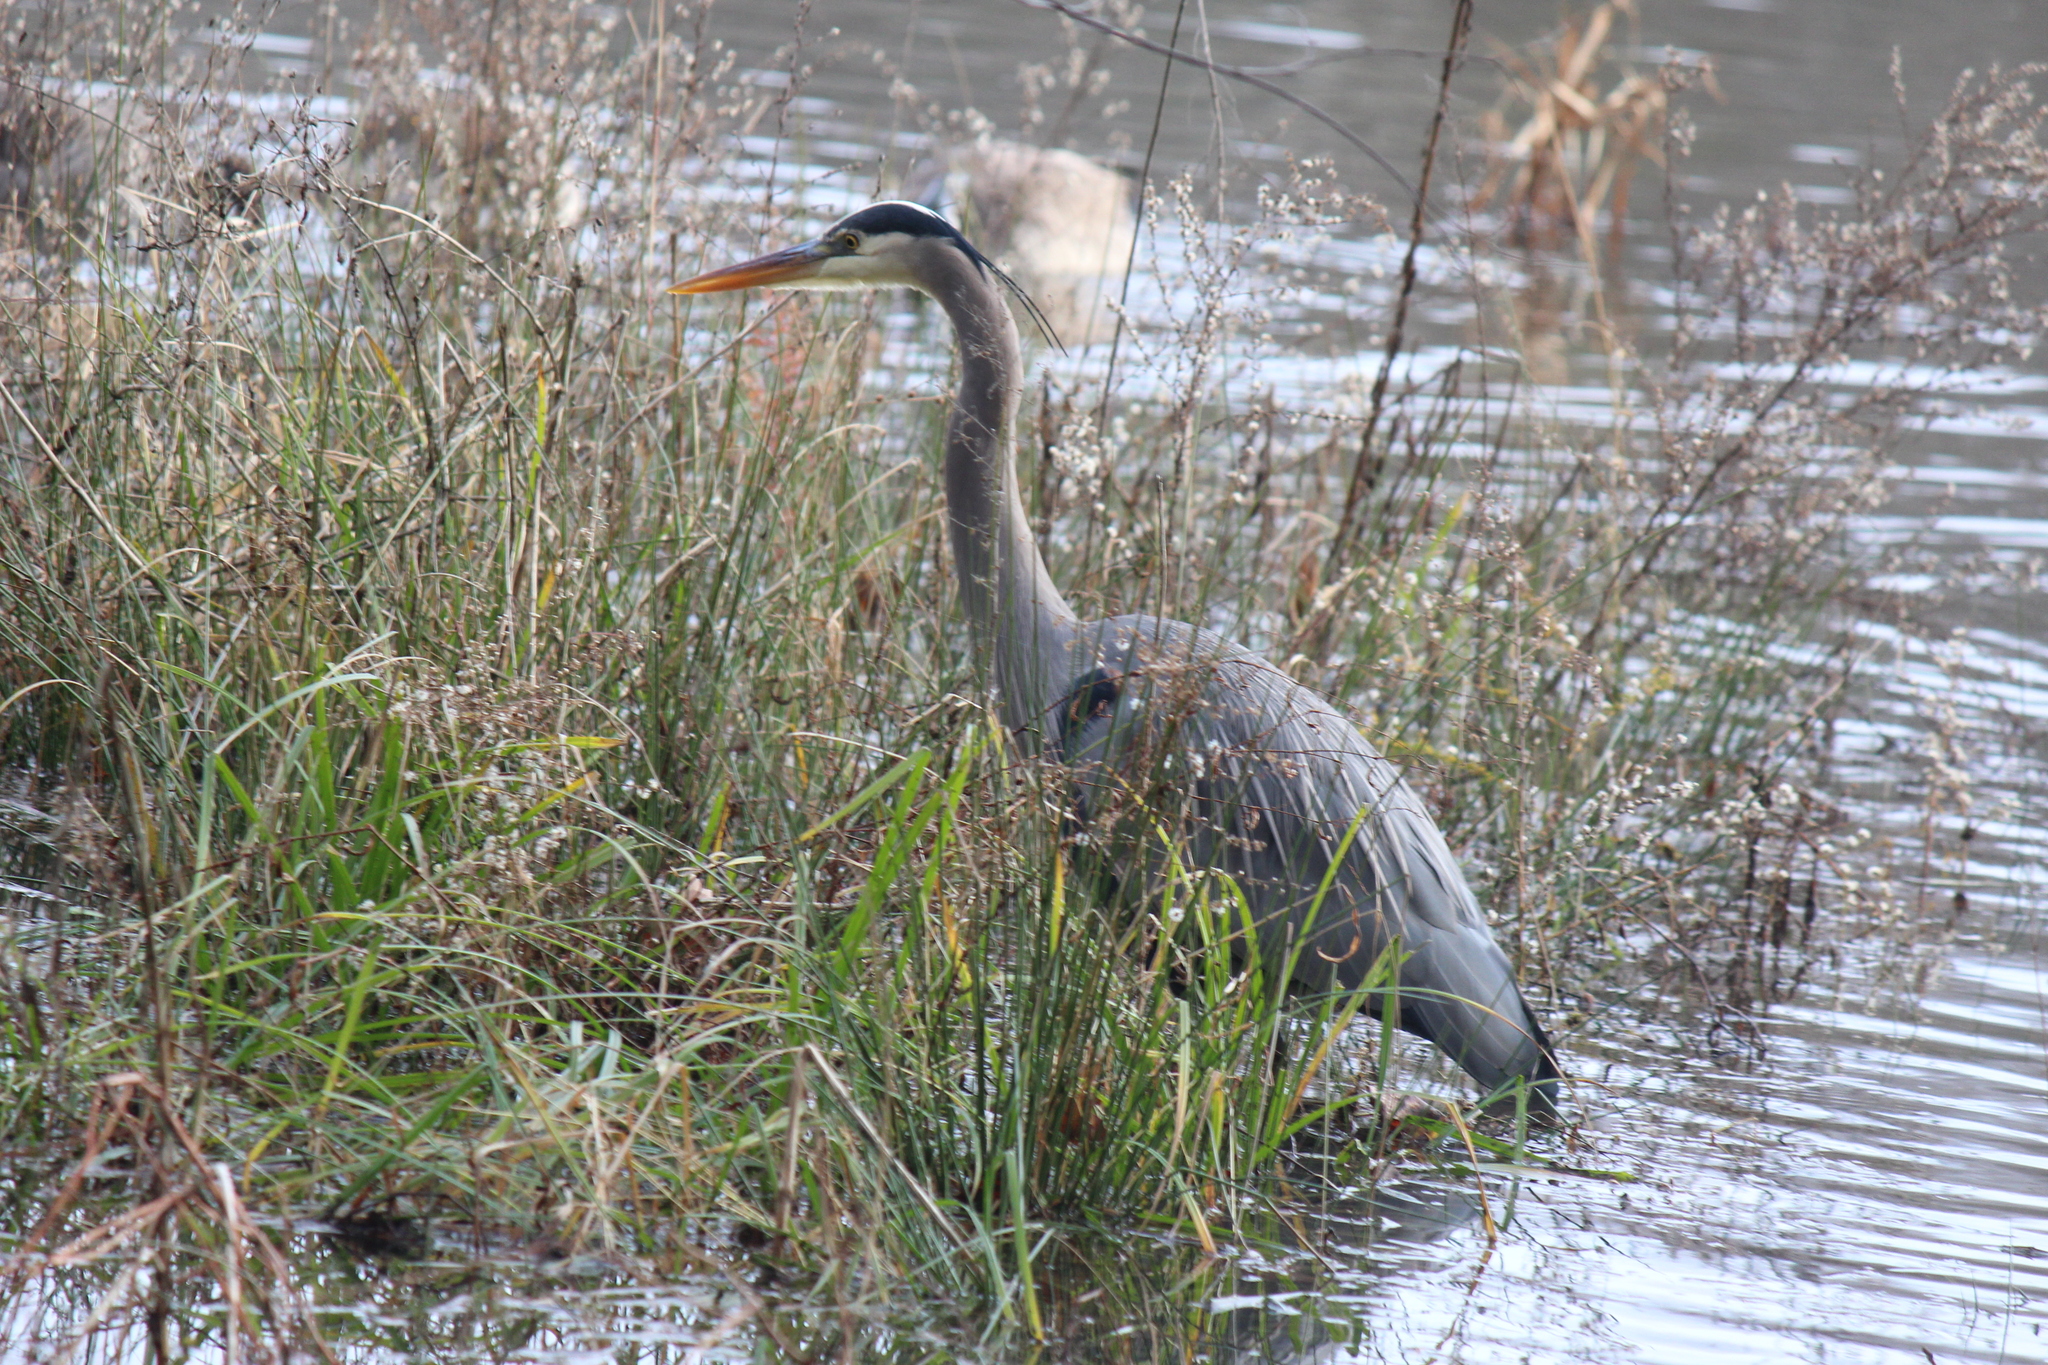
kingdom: Animalia
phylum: Chordata
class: Aves
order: Pelecaniformes
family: Ardeidae
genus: Ardea
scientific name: Ardea herodias
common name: Great blue heron
